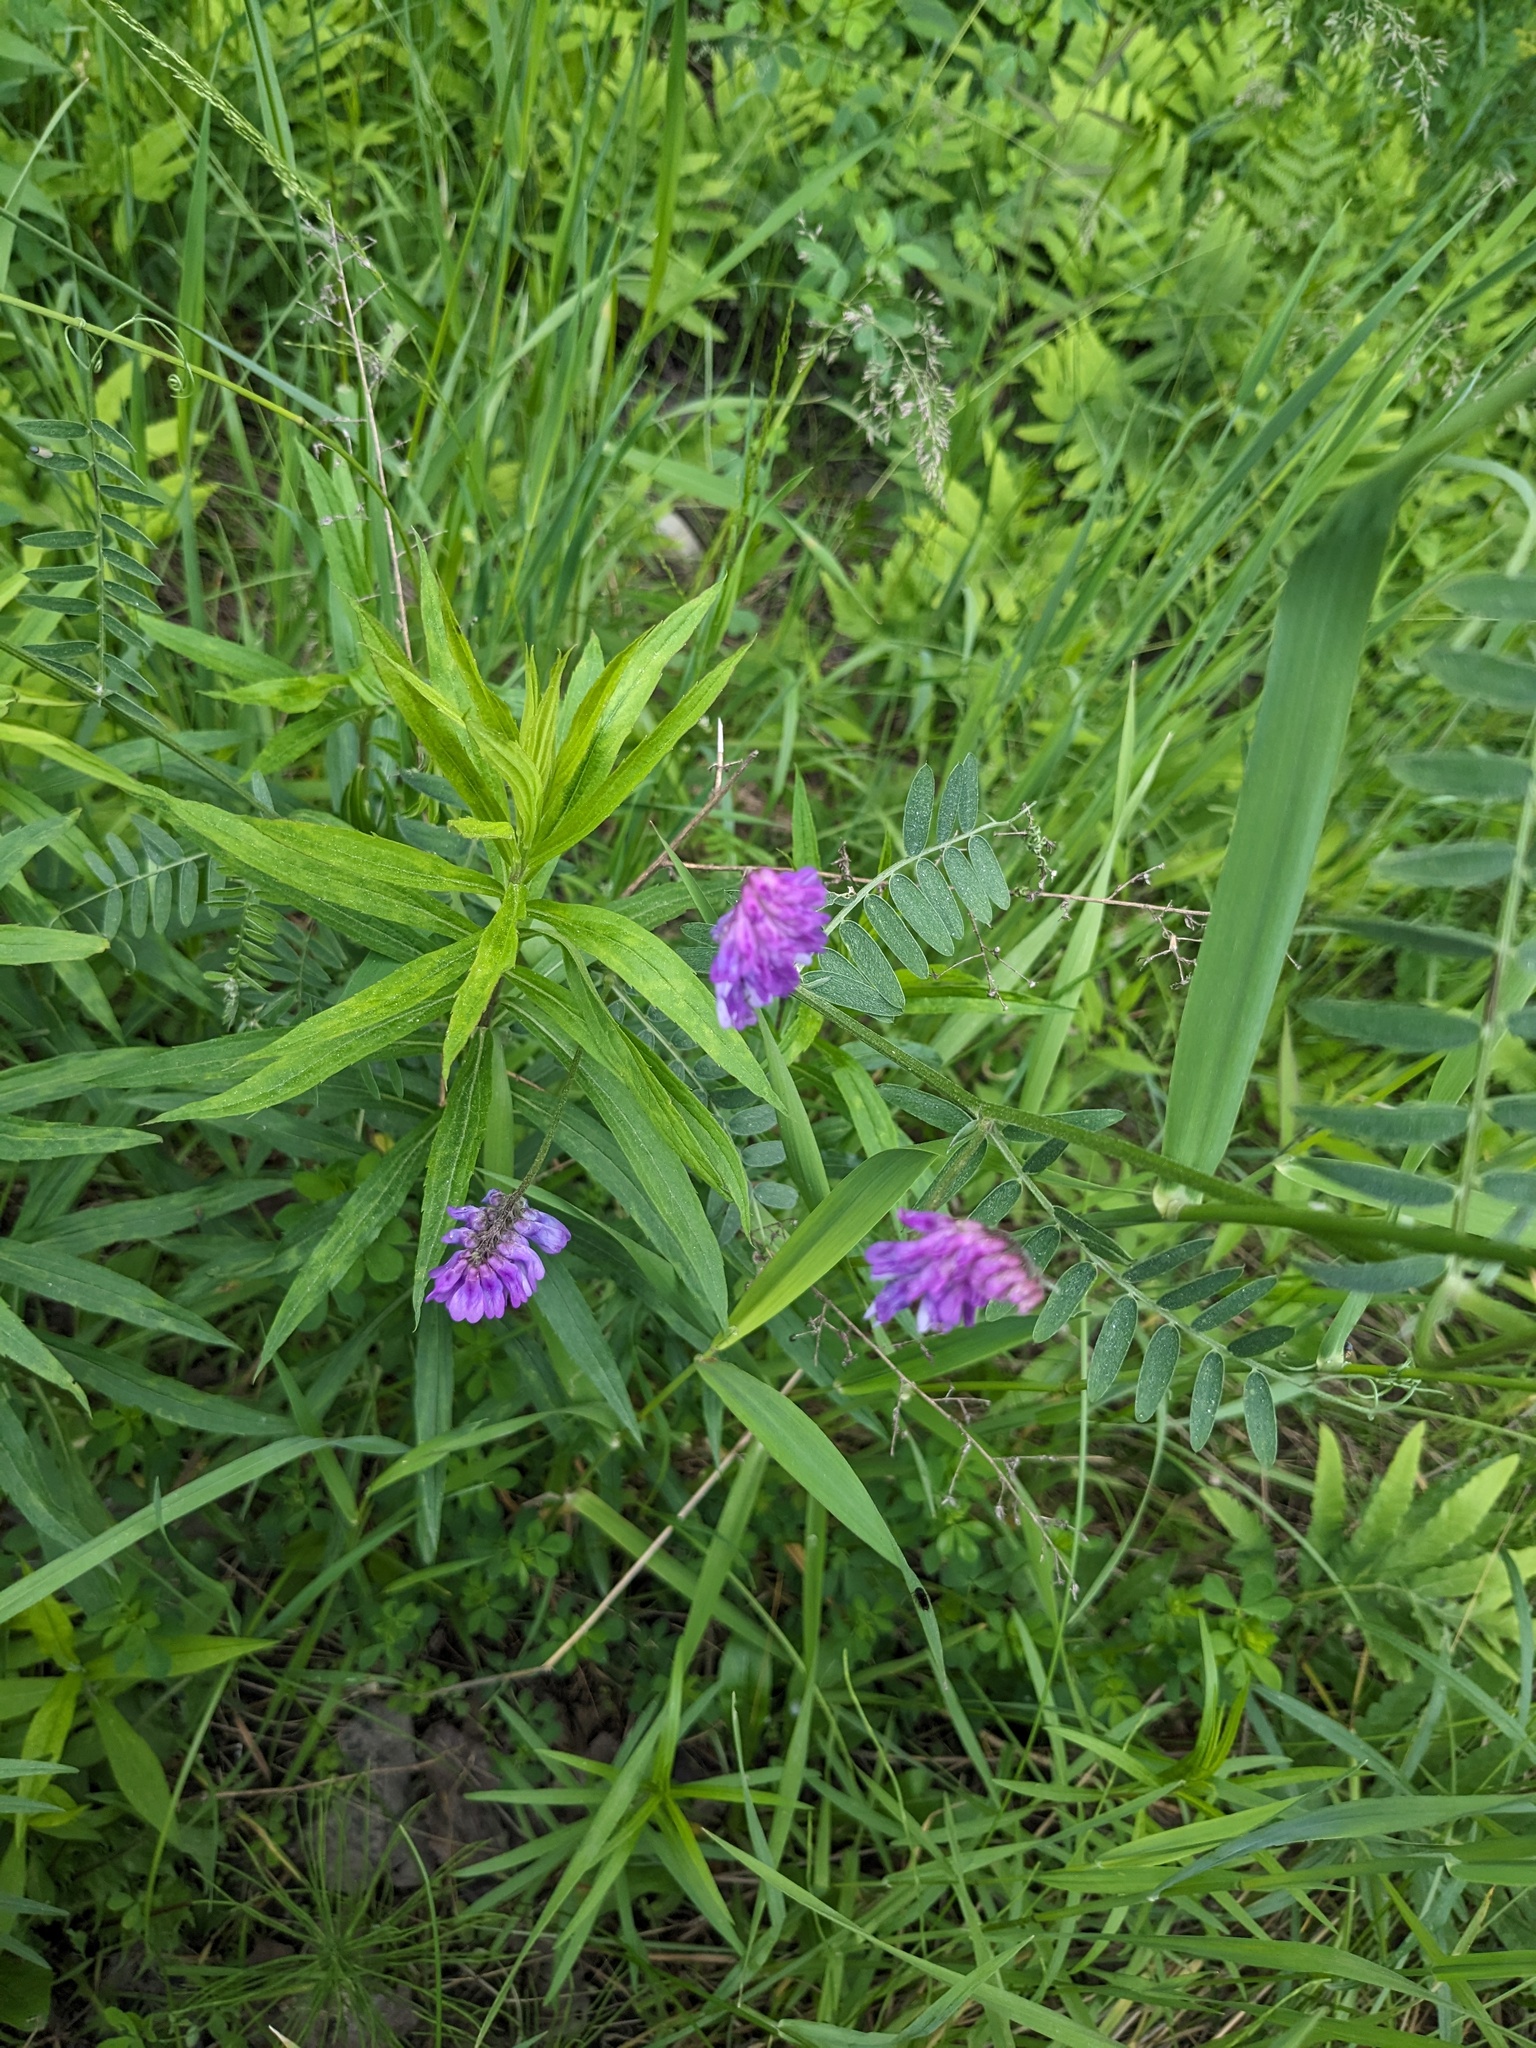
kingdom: Plantae
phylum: Tracheophyta
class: Magnoliopsida
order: Fabales
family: Fabaceae
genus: Vicia
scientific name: Vicia cracca
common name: Bird vetch
